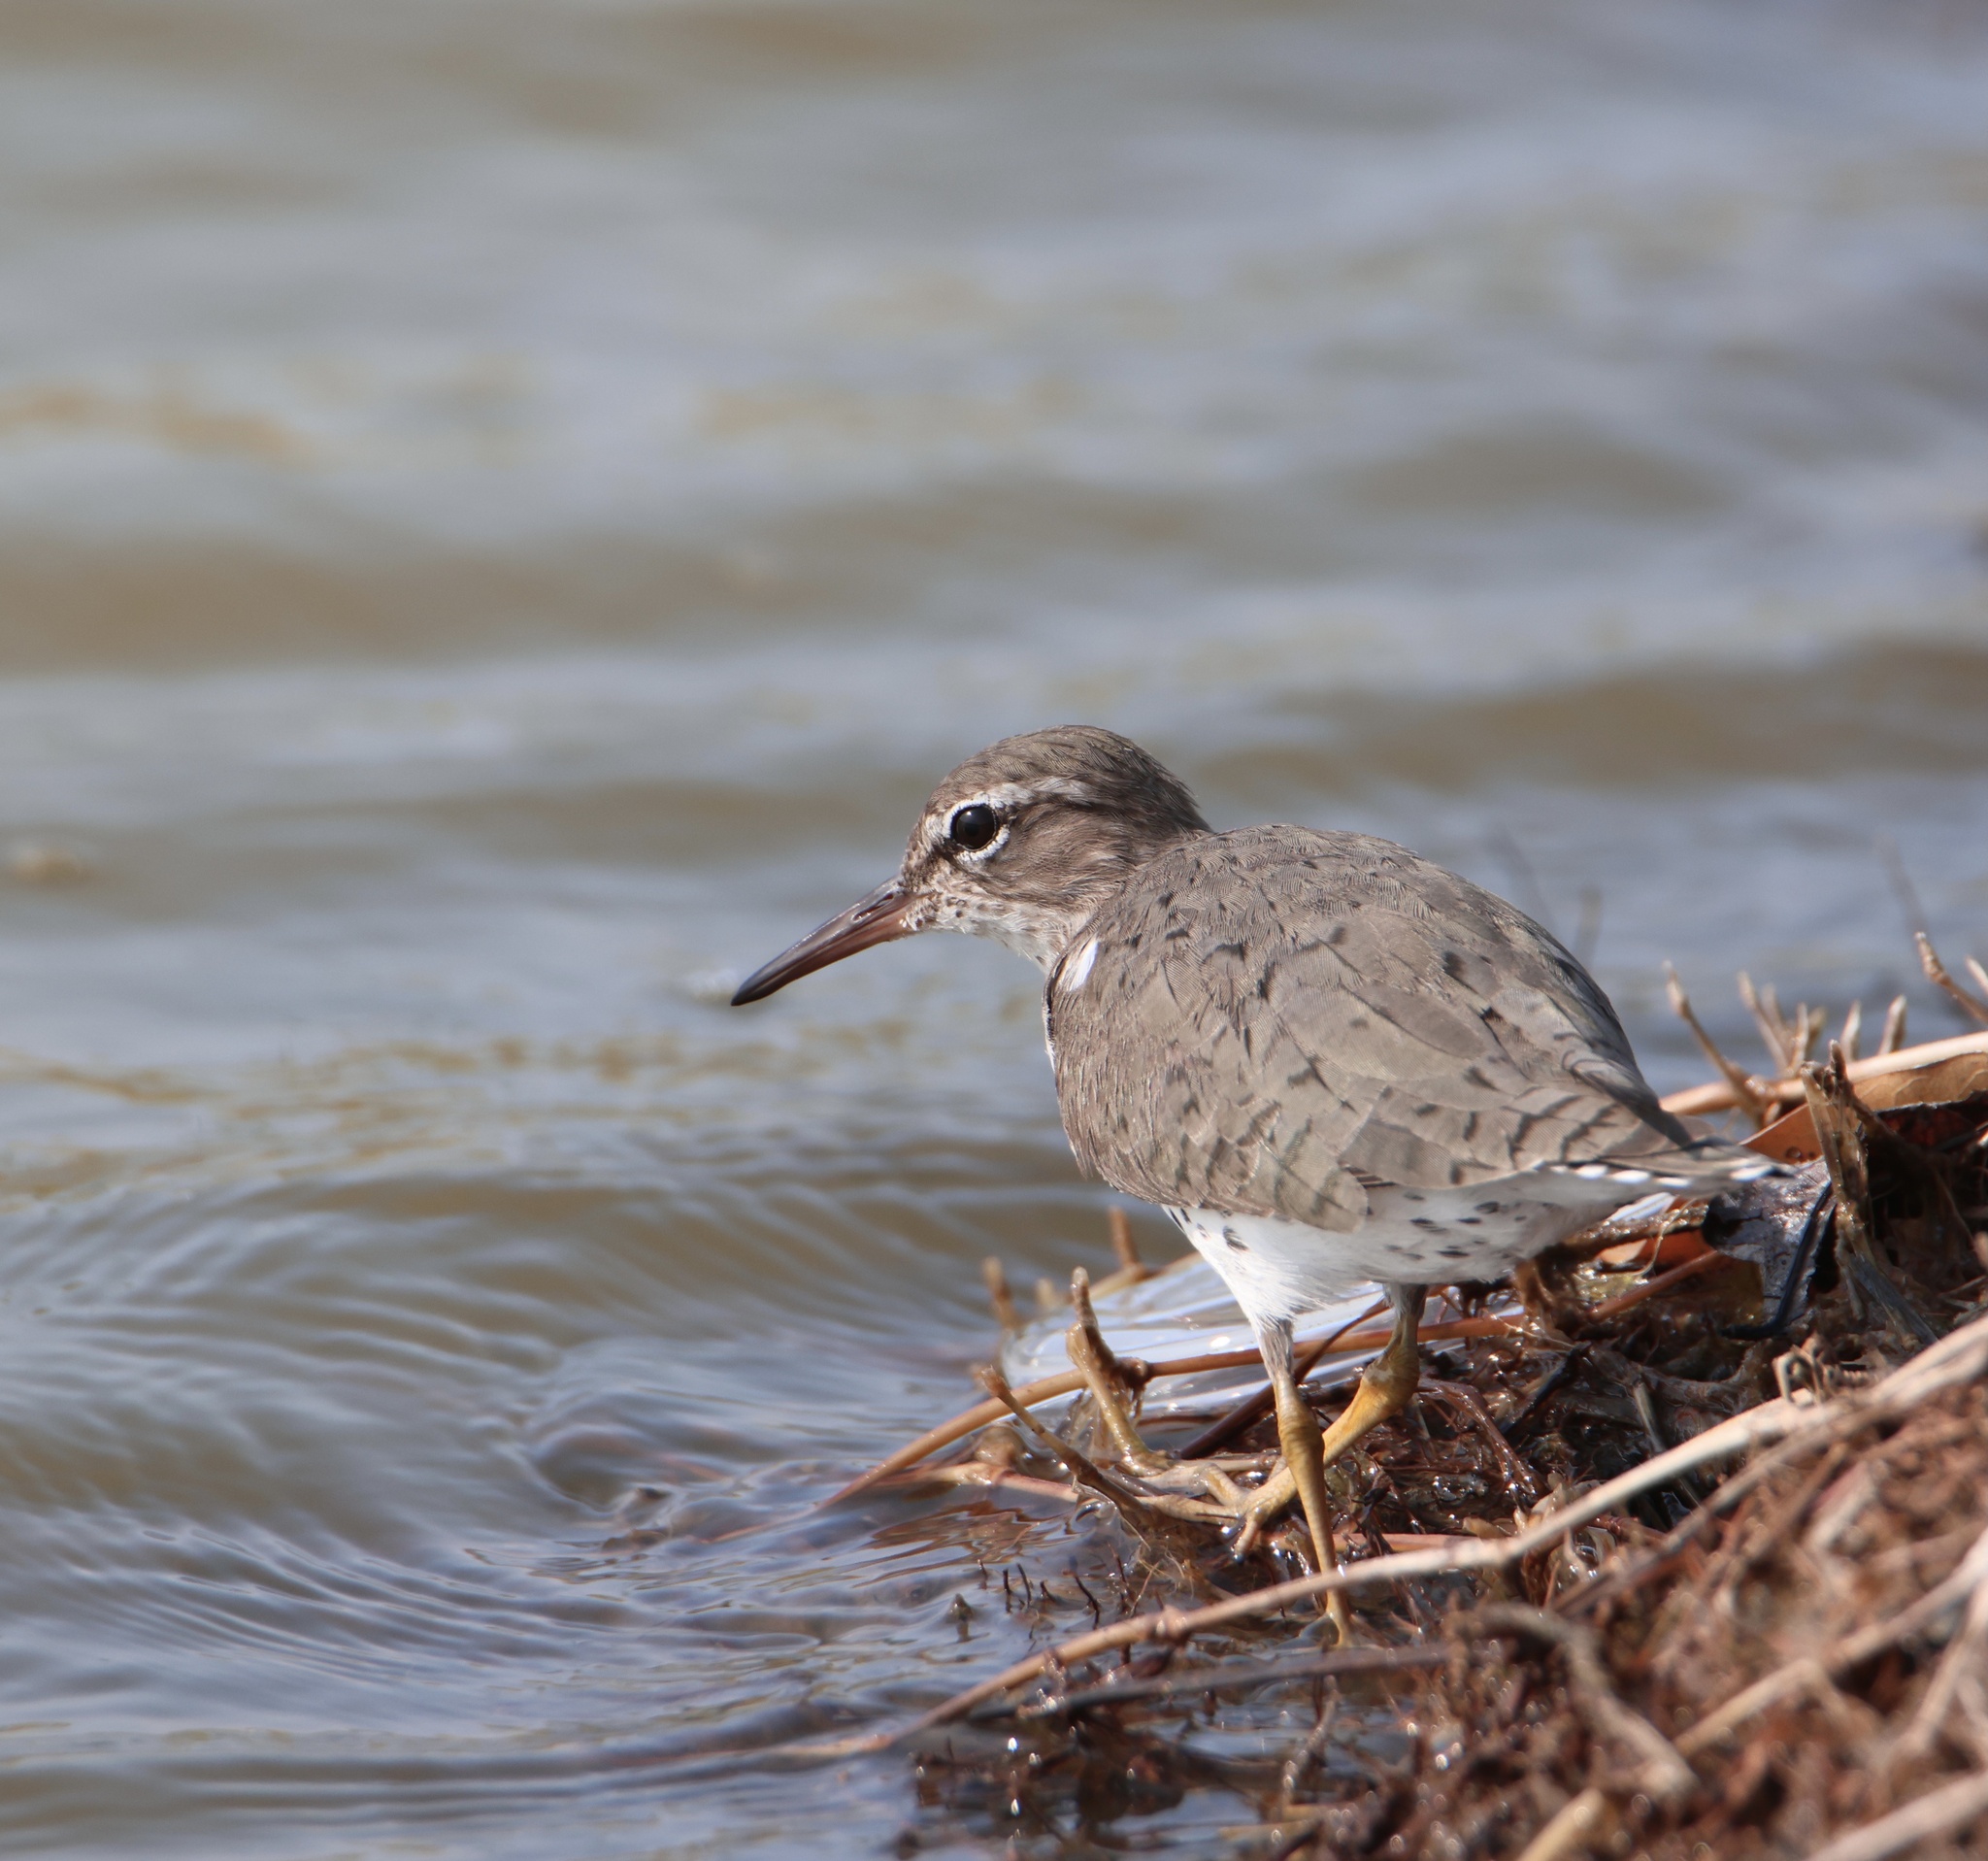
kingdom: Animalia
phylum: Chordata
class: Aves
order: Charadriiformes
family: Scolopacidae
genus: Actitis
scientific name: Actitis macularius
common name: Spotted sandpiper
